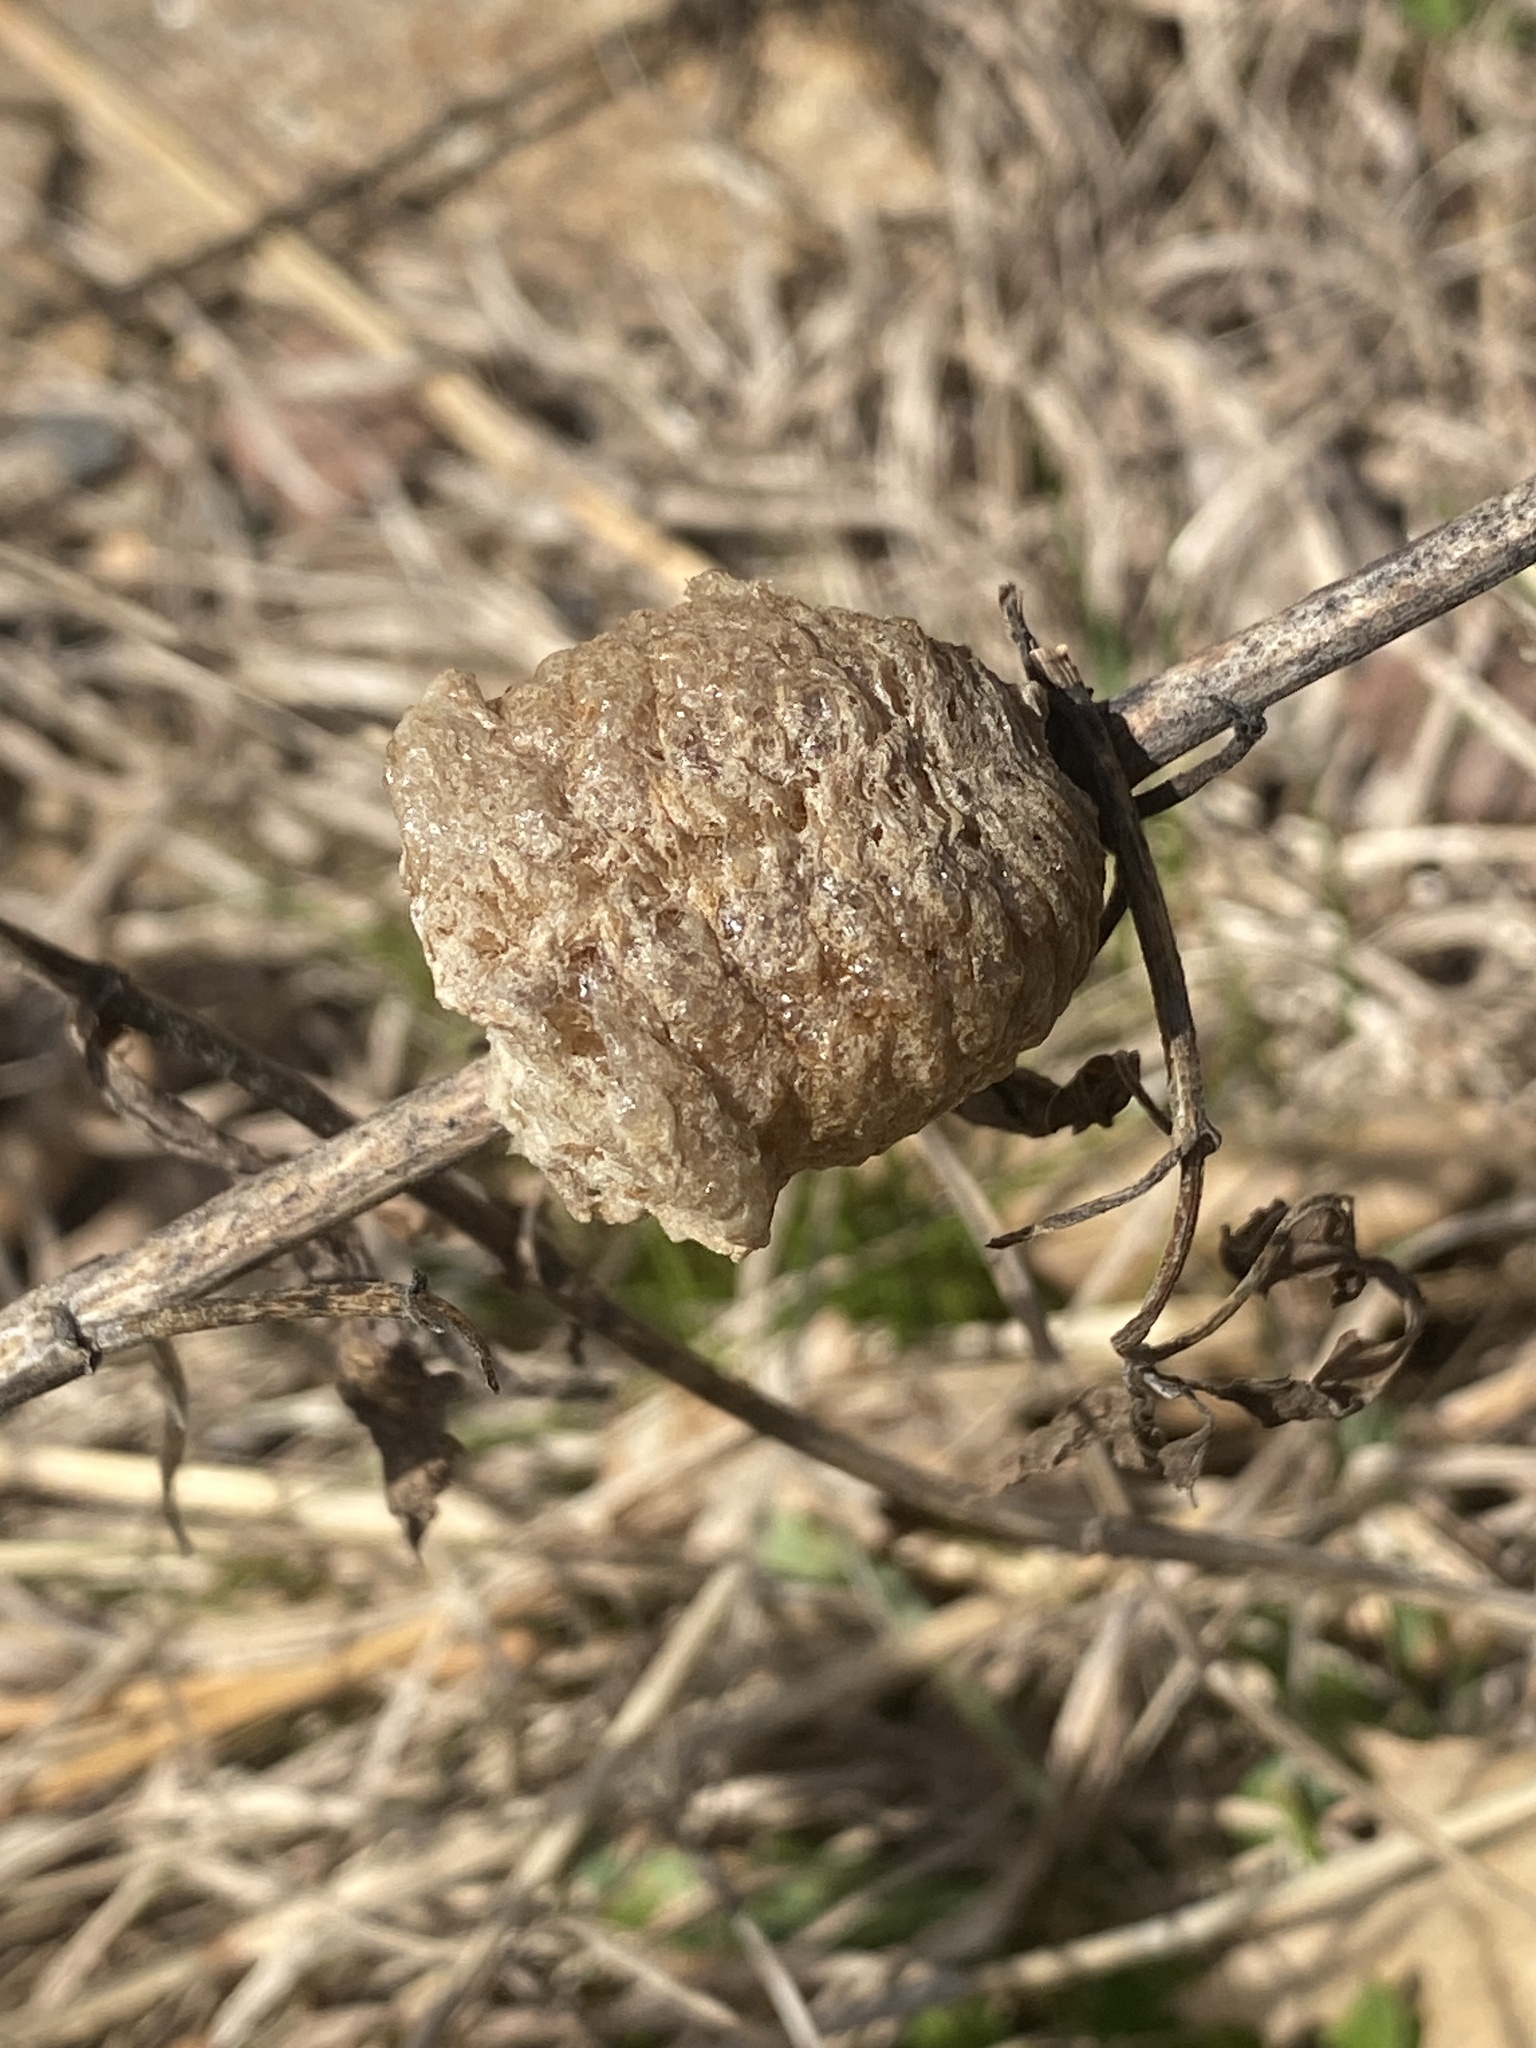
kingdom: Animalia
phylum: Arthropoda
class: Insecta
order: Mantodea
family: Mantidae
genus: Tenodera
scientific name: Tenodera sinensis
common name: Chinese mantis
